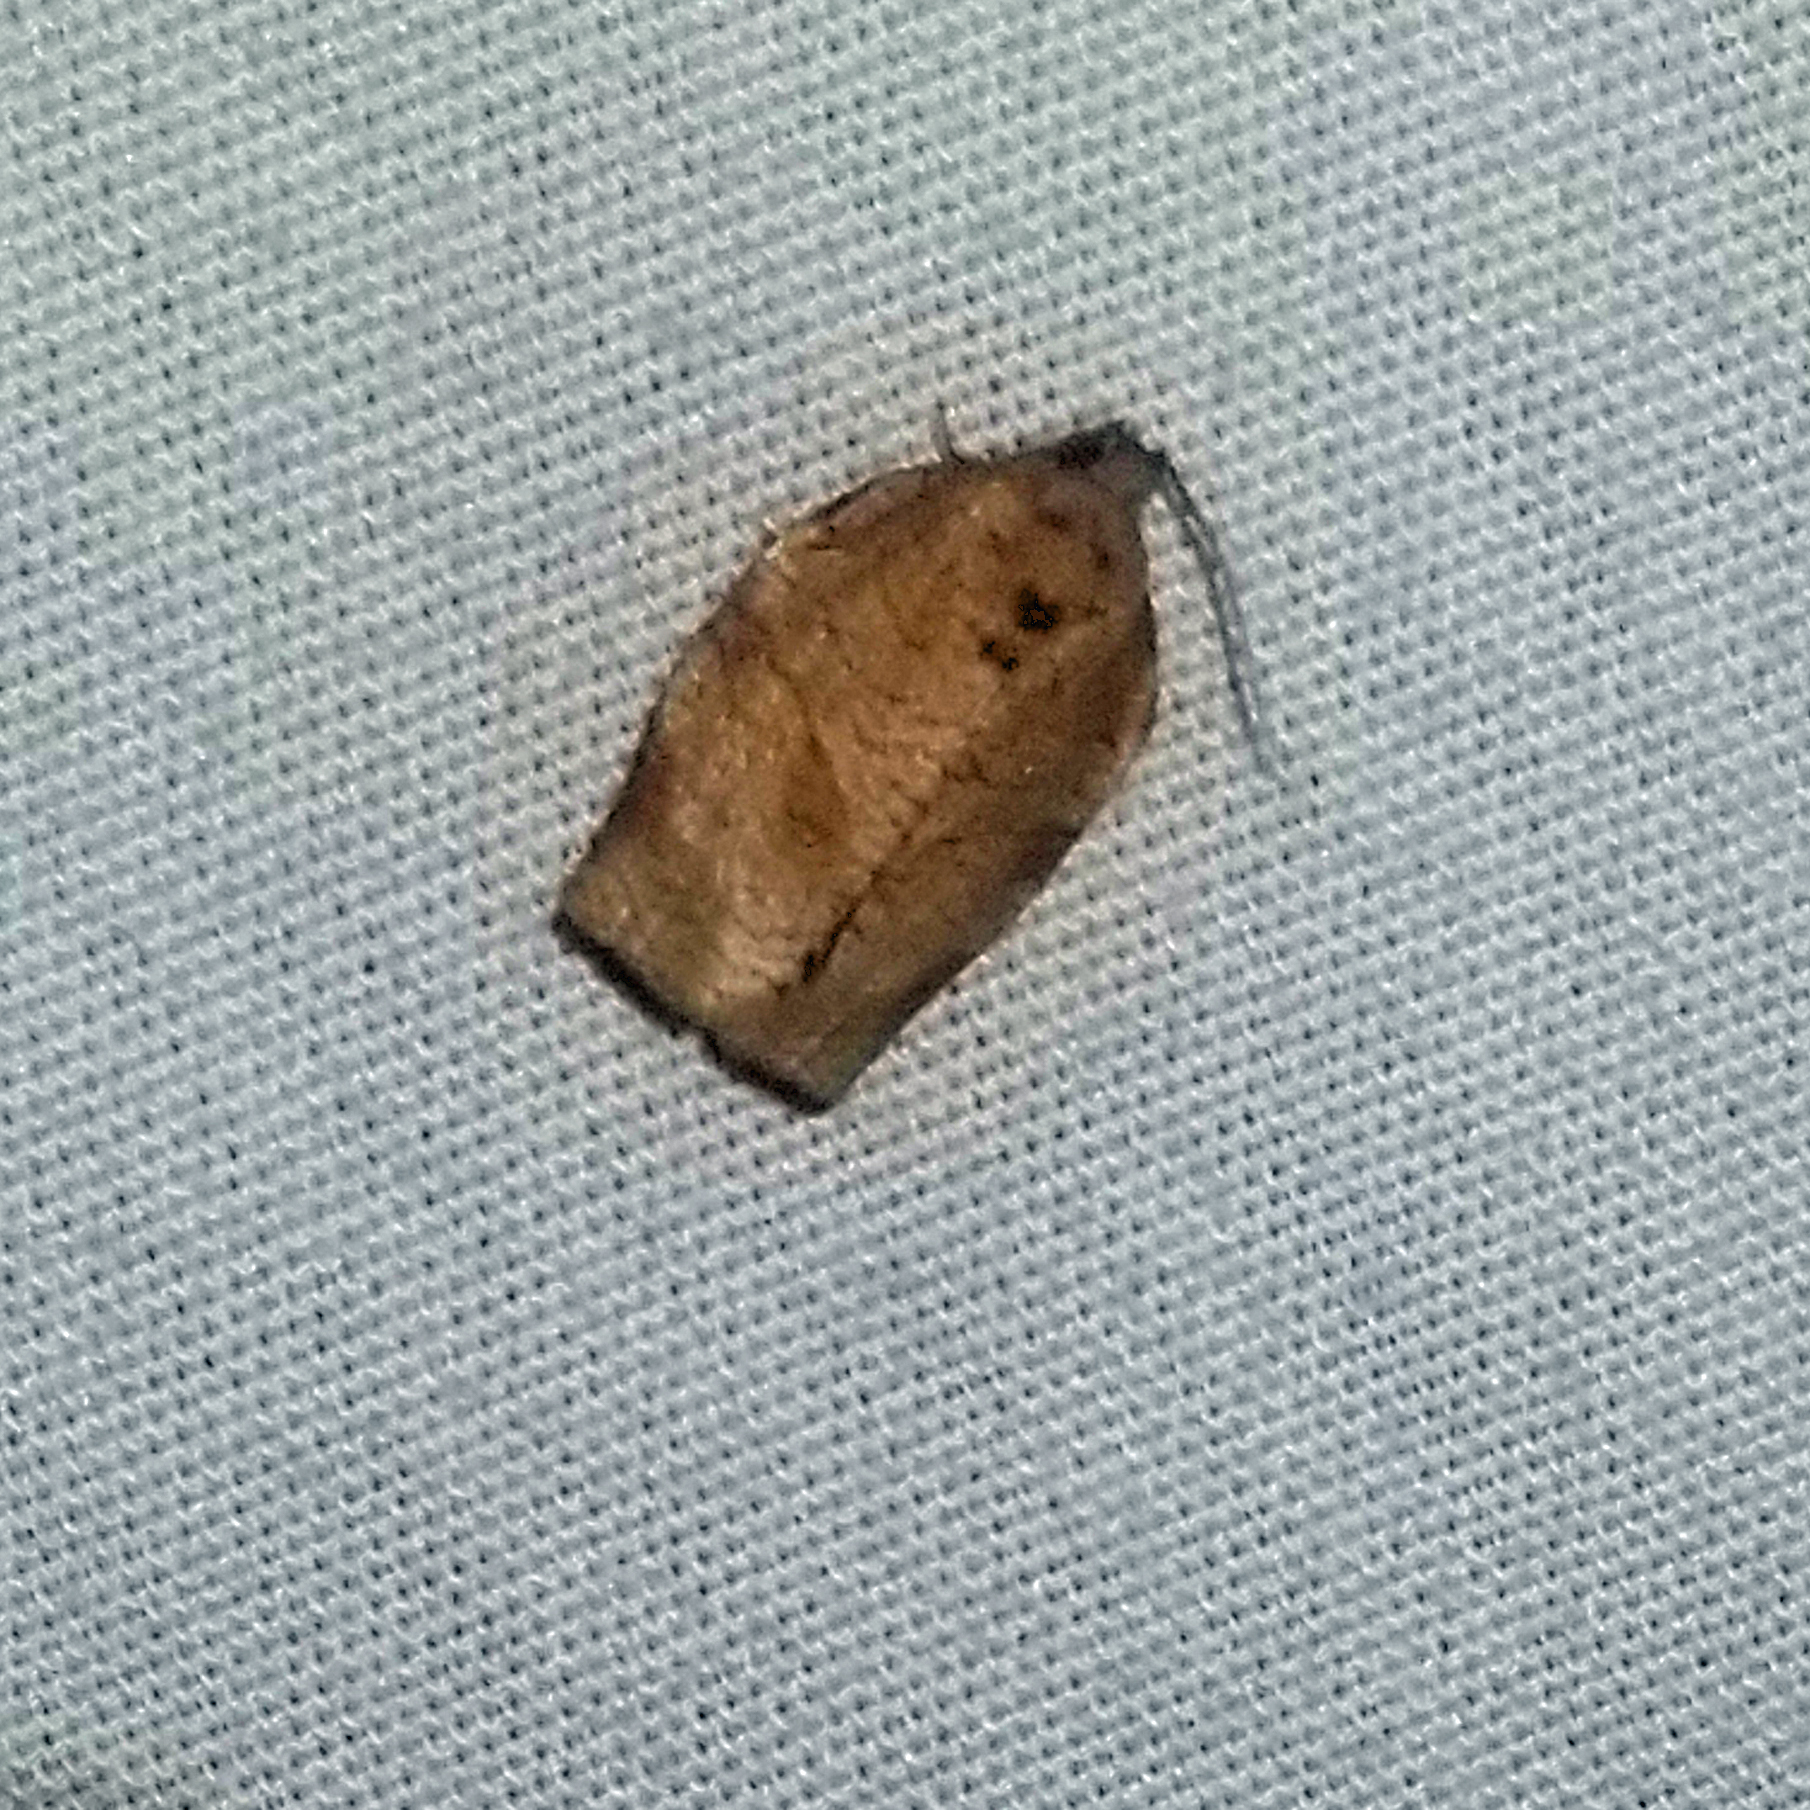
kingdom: Animalia
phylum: Arthropoda
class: Insecta
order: Lepidoptera
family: Tortricidae
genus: Choristoneura
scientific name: Choristoneura rosaceana
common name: Oblique-banded leafroller moth
